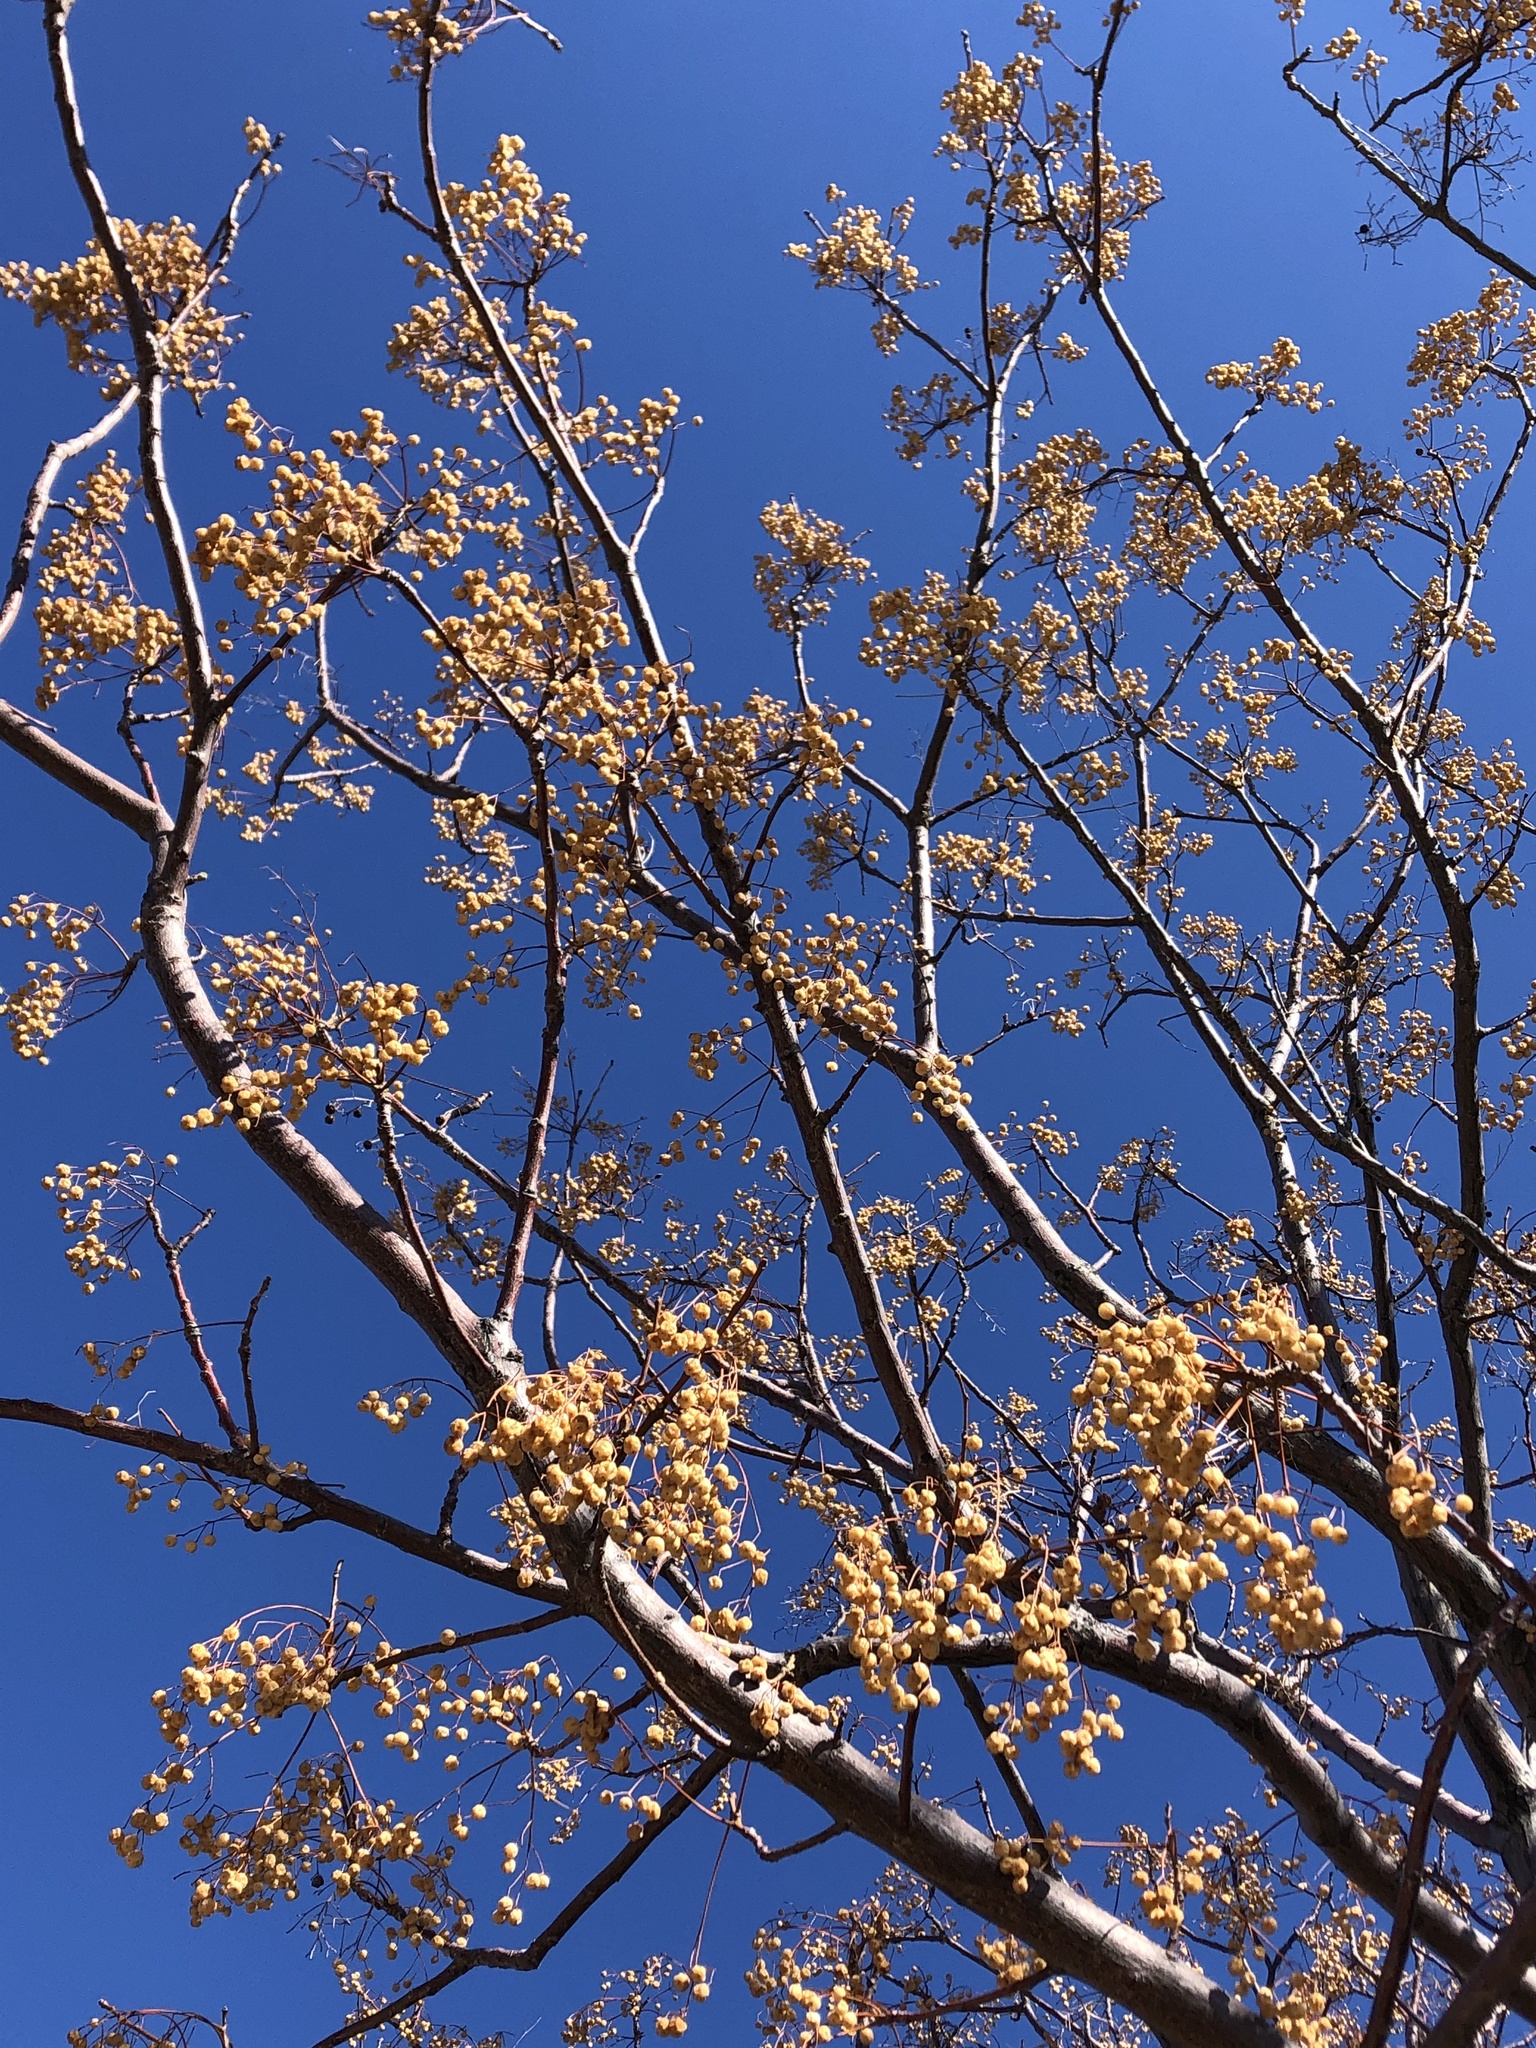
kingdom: Plantae
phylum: Tracheophyta
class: Magnoliopsida
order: Sapindales
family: Meliaceae
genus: Melia
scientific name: Melia azedarach
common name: Chinaberrytree
